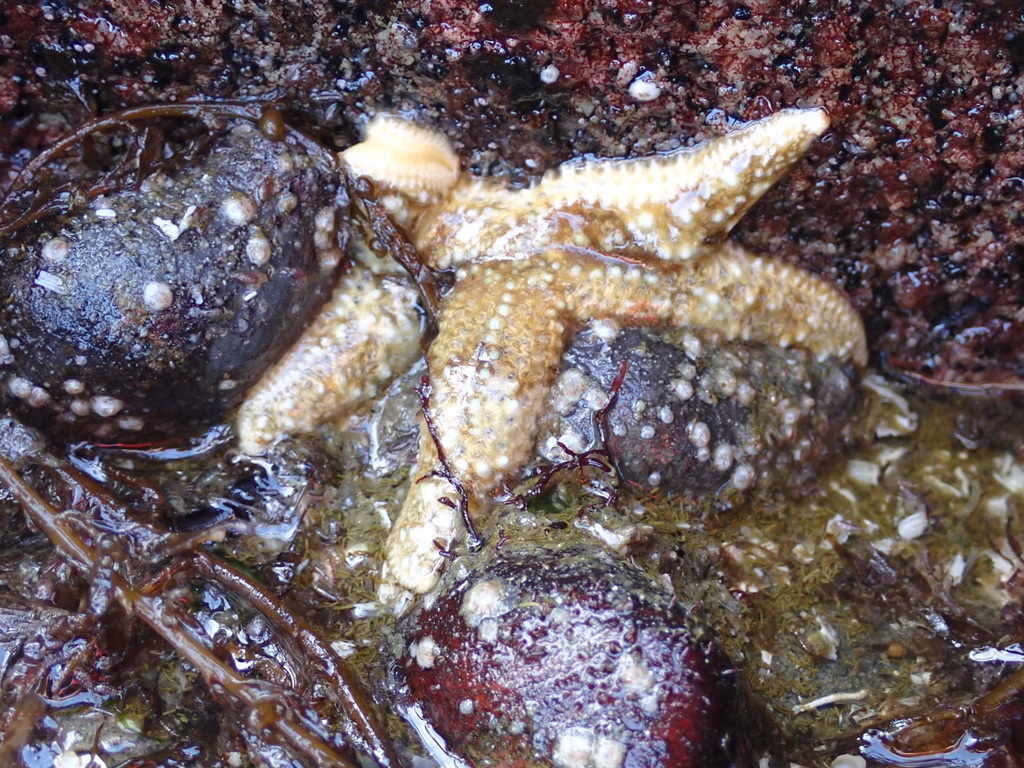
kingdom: Animalia
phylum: Echinodermata
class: Asteroidea
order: Forcipulatida
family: Asteriidae
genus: Evasterias
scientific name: Evasterias troschelii
